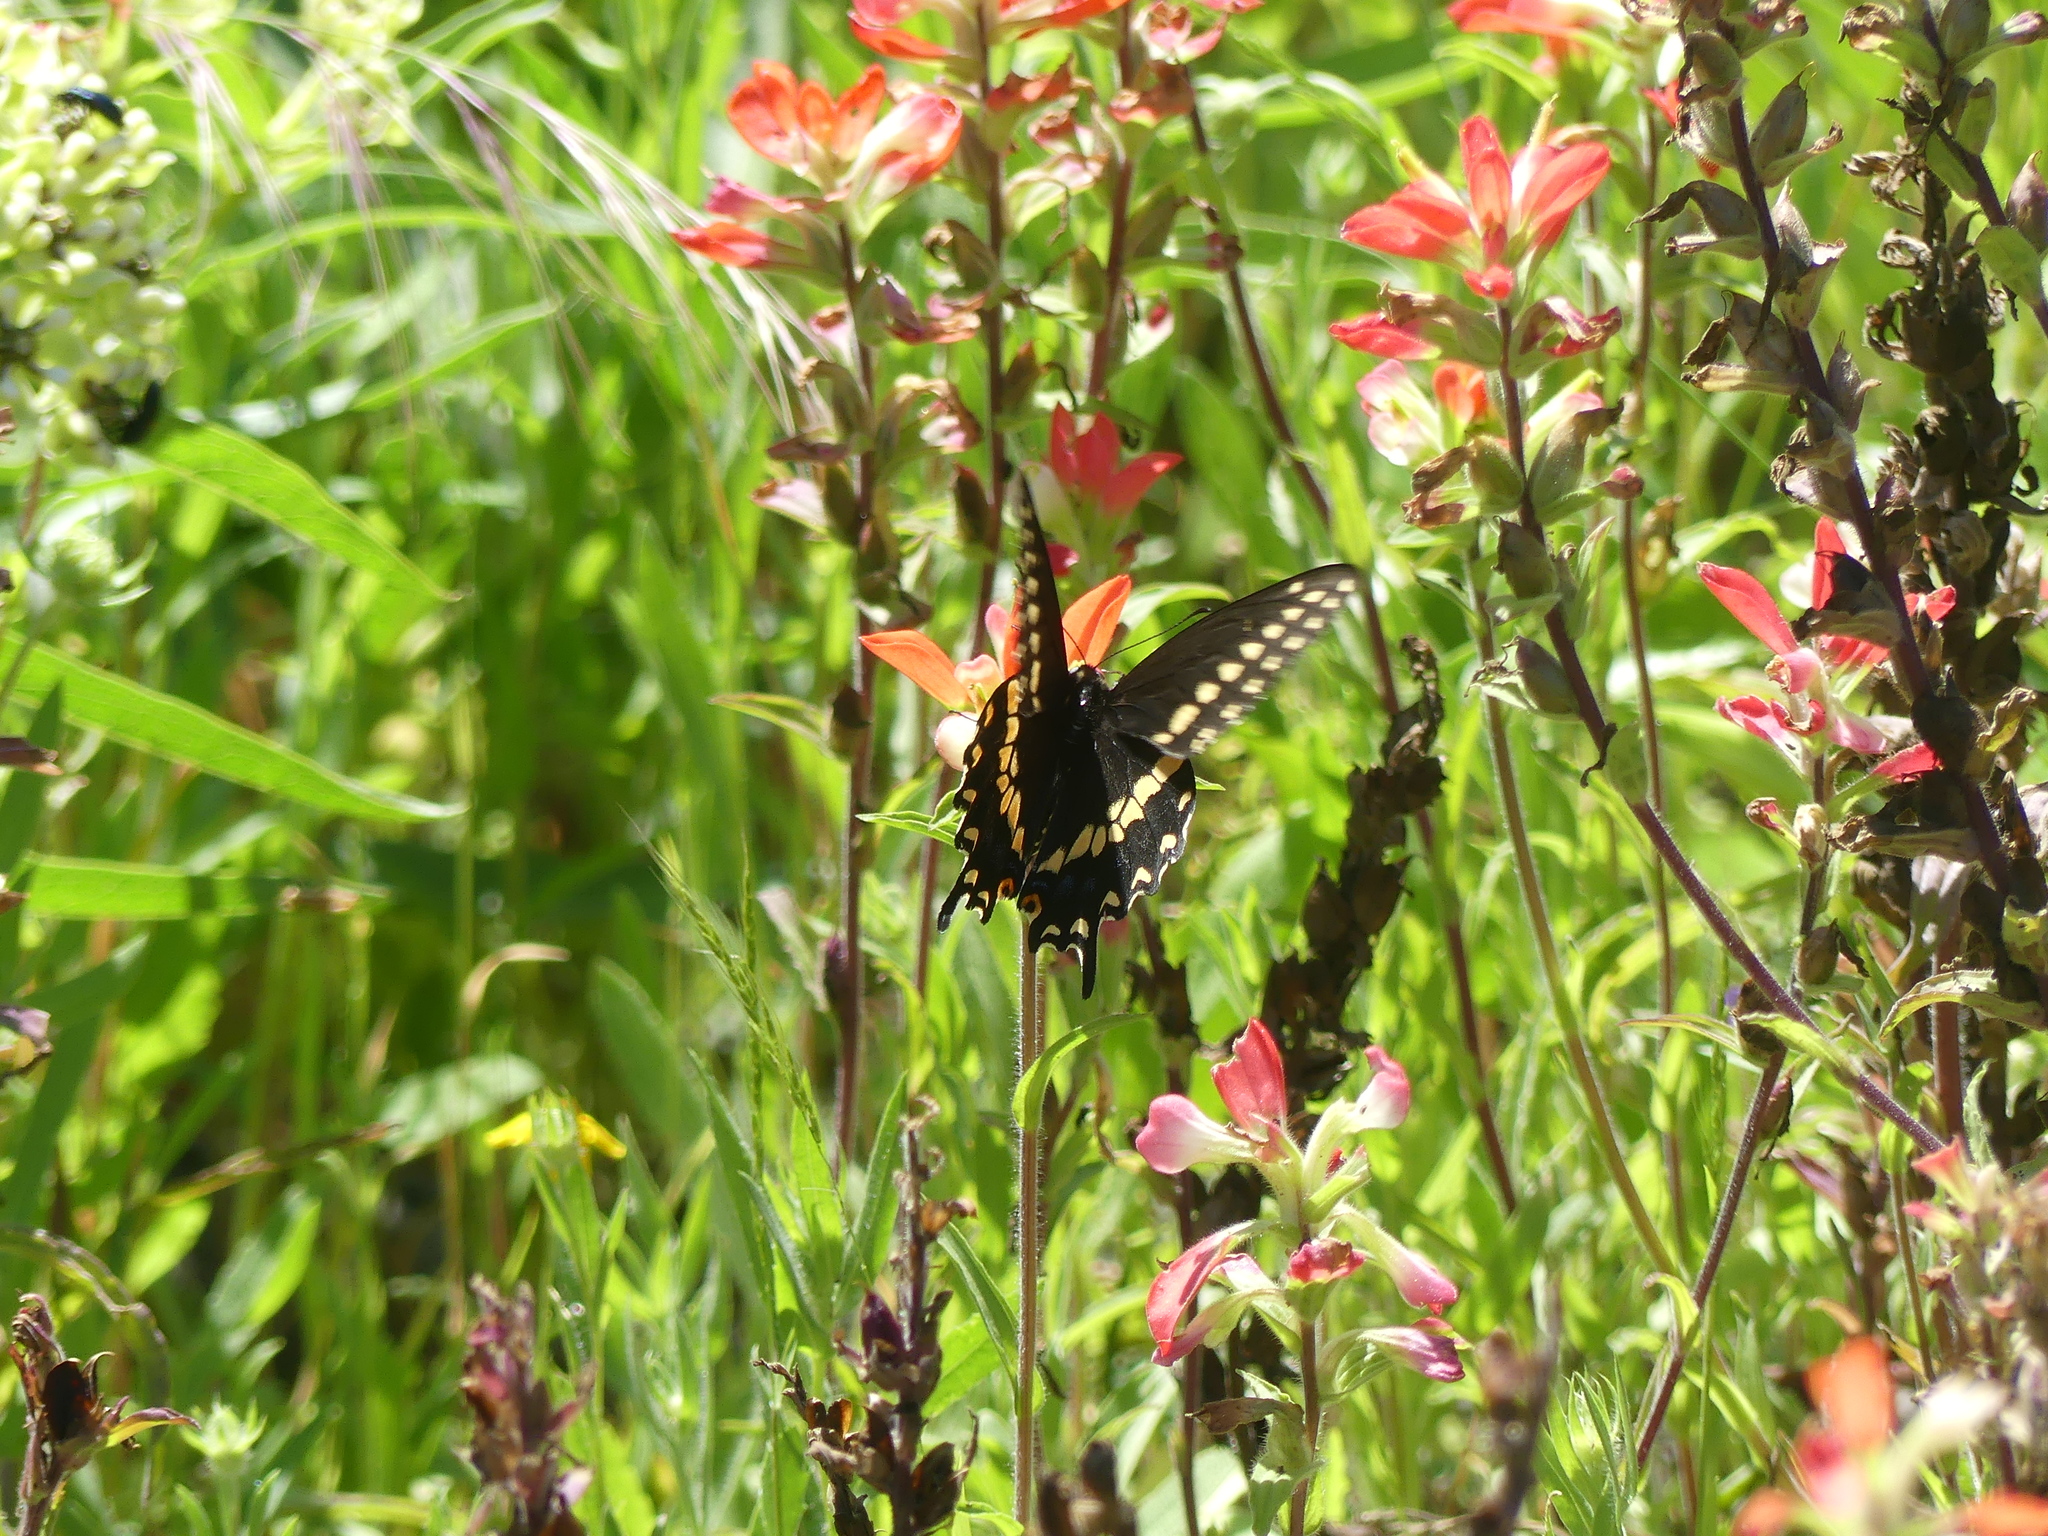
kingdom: Animalia
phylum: Arthropoda
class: Insecta
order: Lepidoptera
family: Papilionidae
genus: Papilio
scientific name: Papilio polyxenes
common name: Black swallowtail
